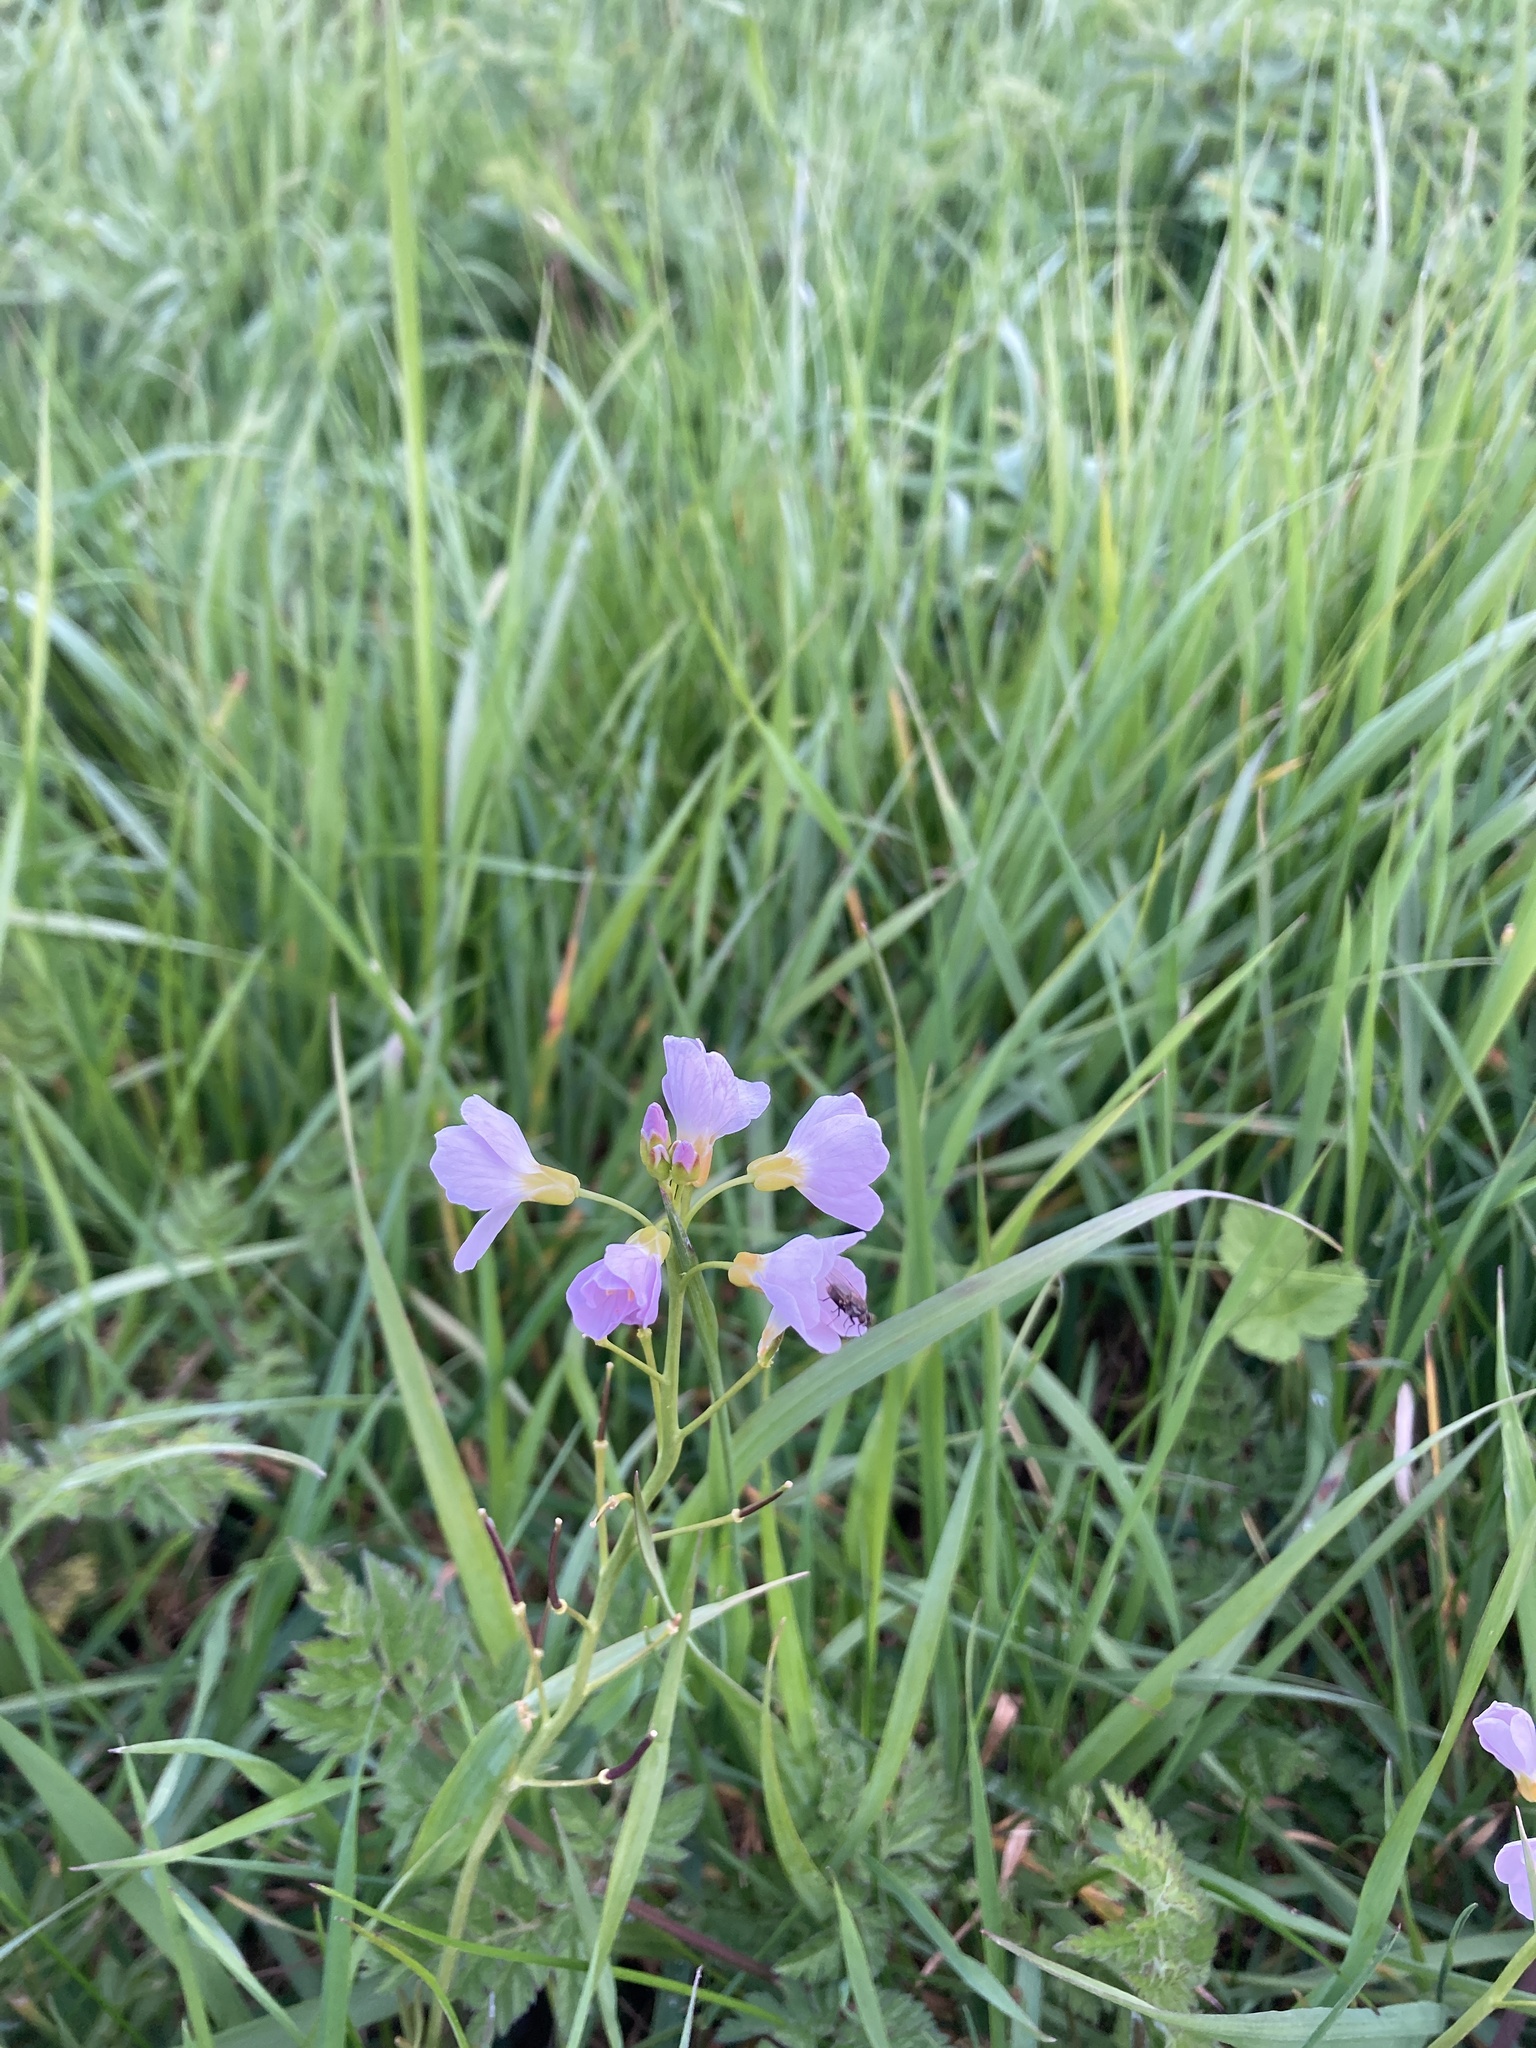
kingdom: Plantae
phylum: Tracheophyta
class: Magnoliopsida
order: Brassicales
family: Brassicaceae
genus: Cardamine
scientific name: Cardamine pratensis
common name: Cuckoo flower
